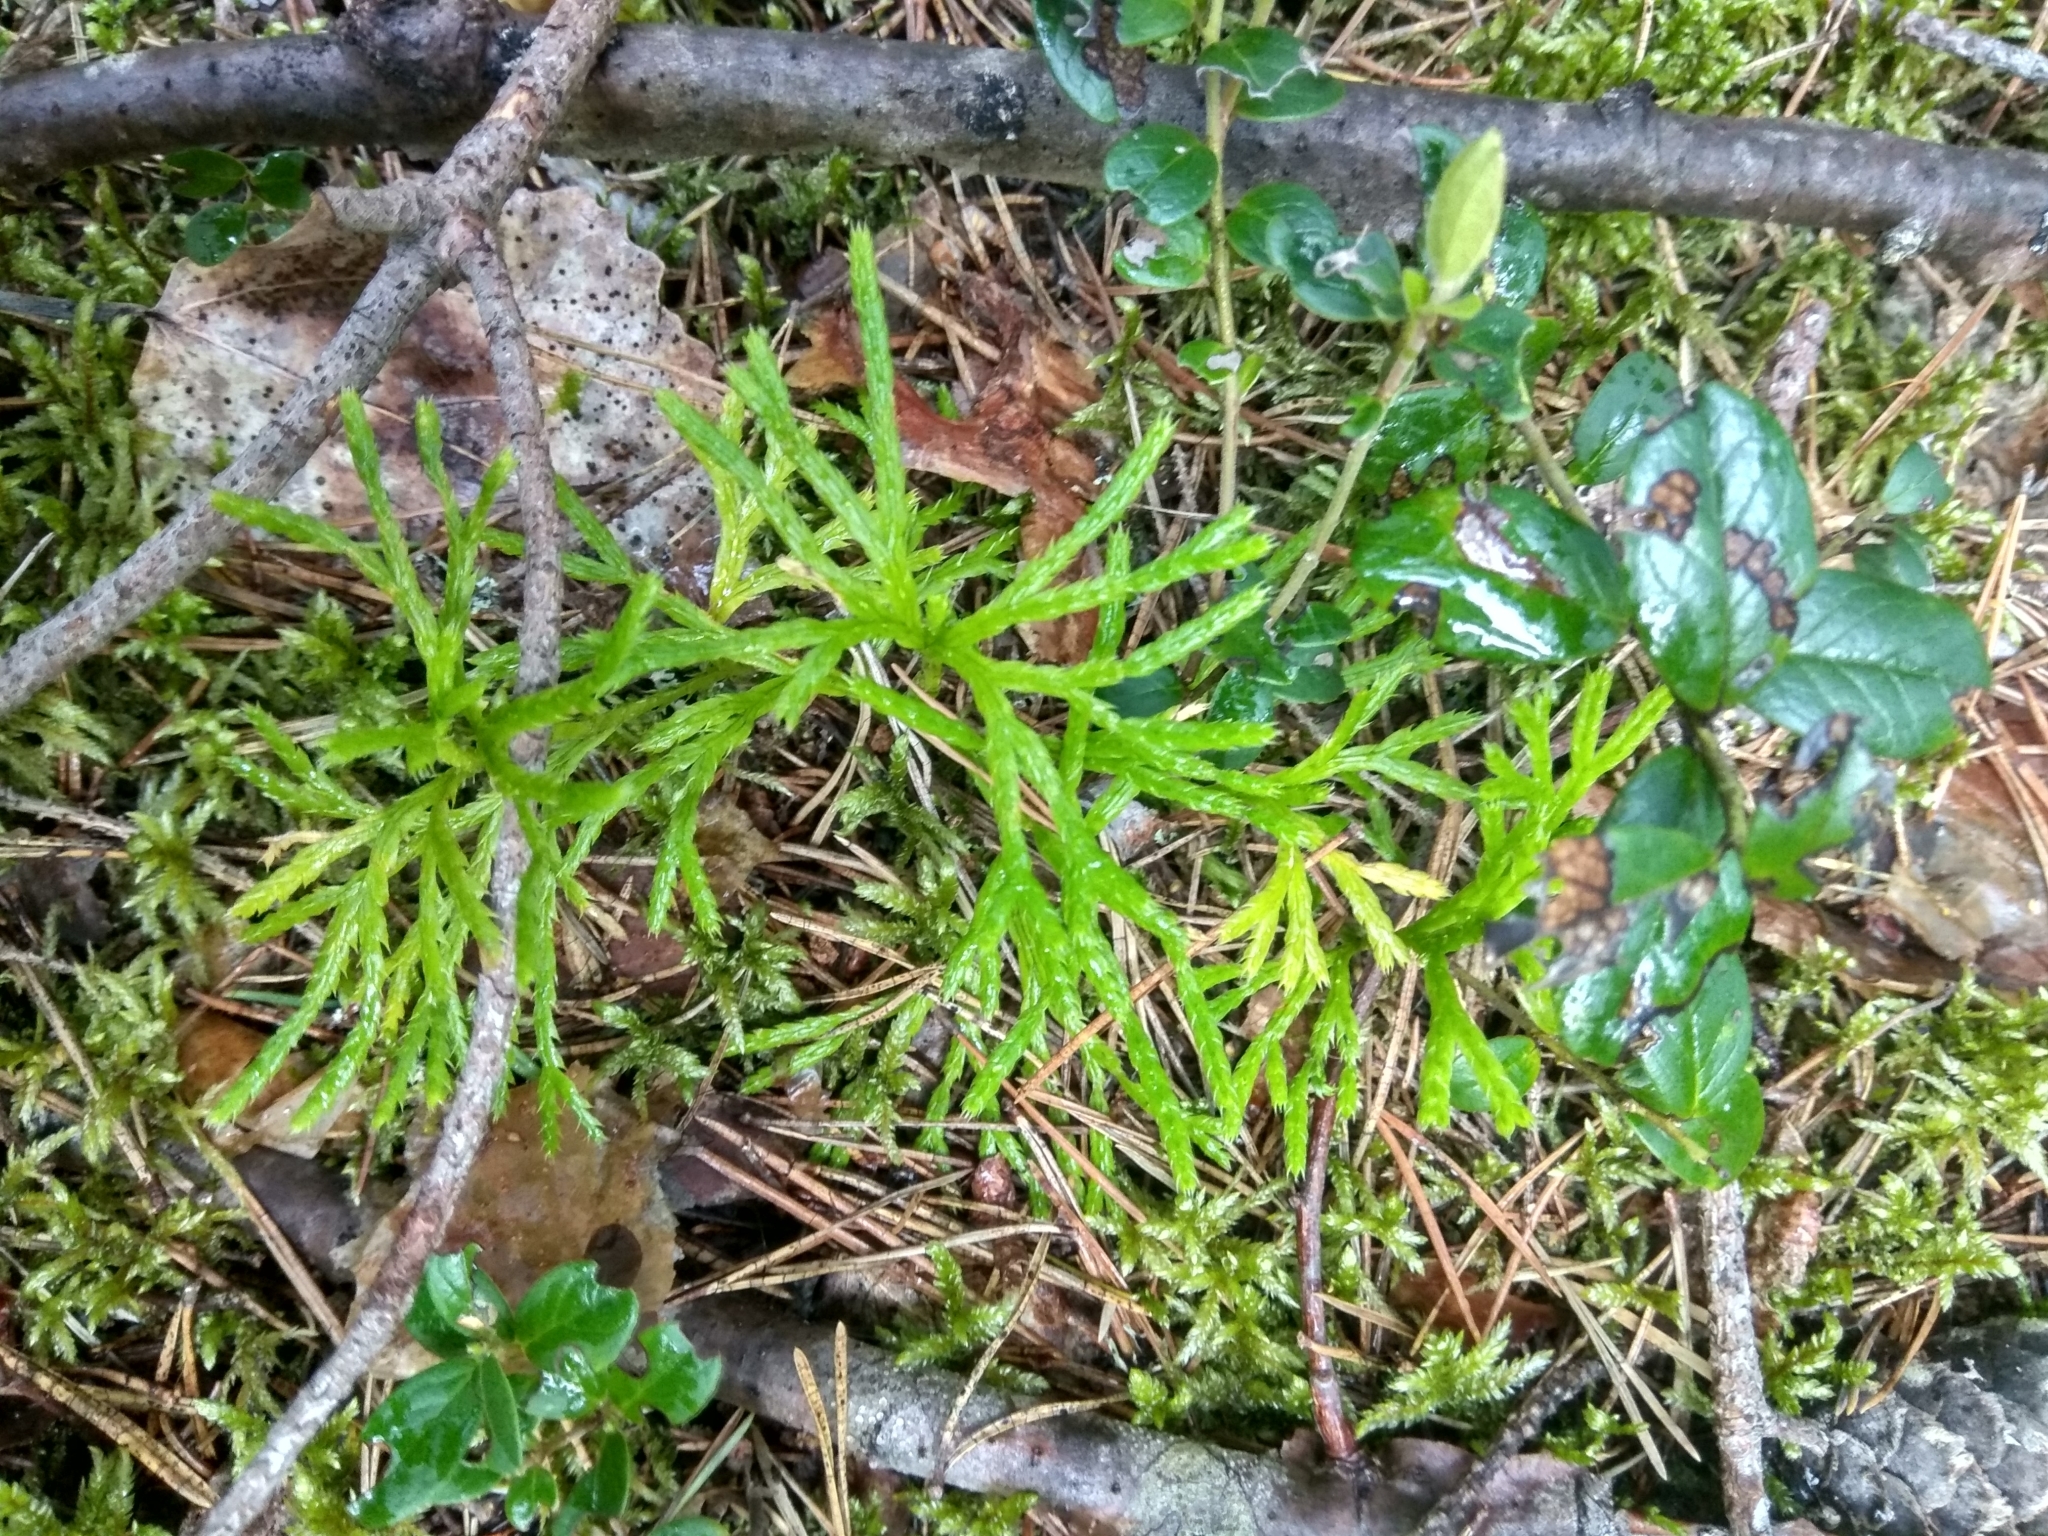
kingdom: Plantae
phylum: Tracheophyta
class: Lycopodiopsida
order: Lycopodiales
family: Lycopodiaceae
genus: Diphasiastrum
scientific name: Diphasiastrum complanatum
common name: Northern running-pine
